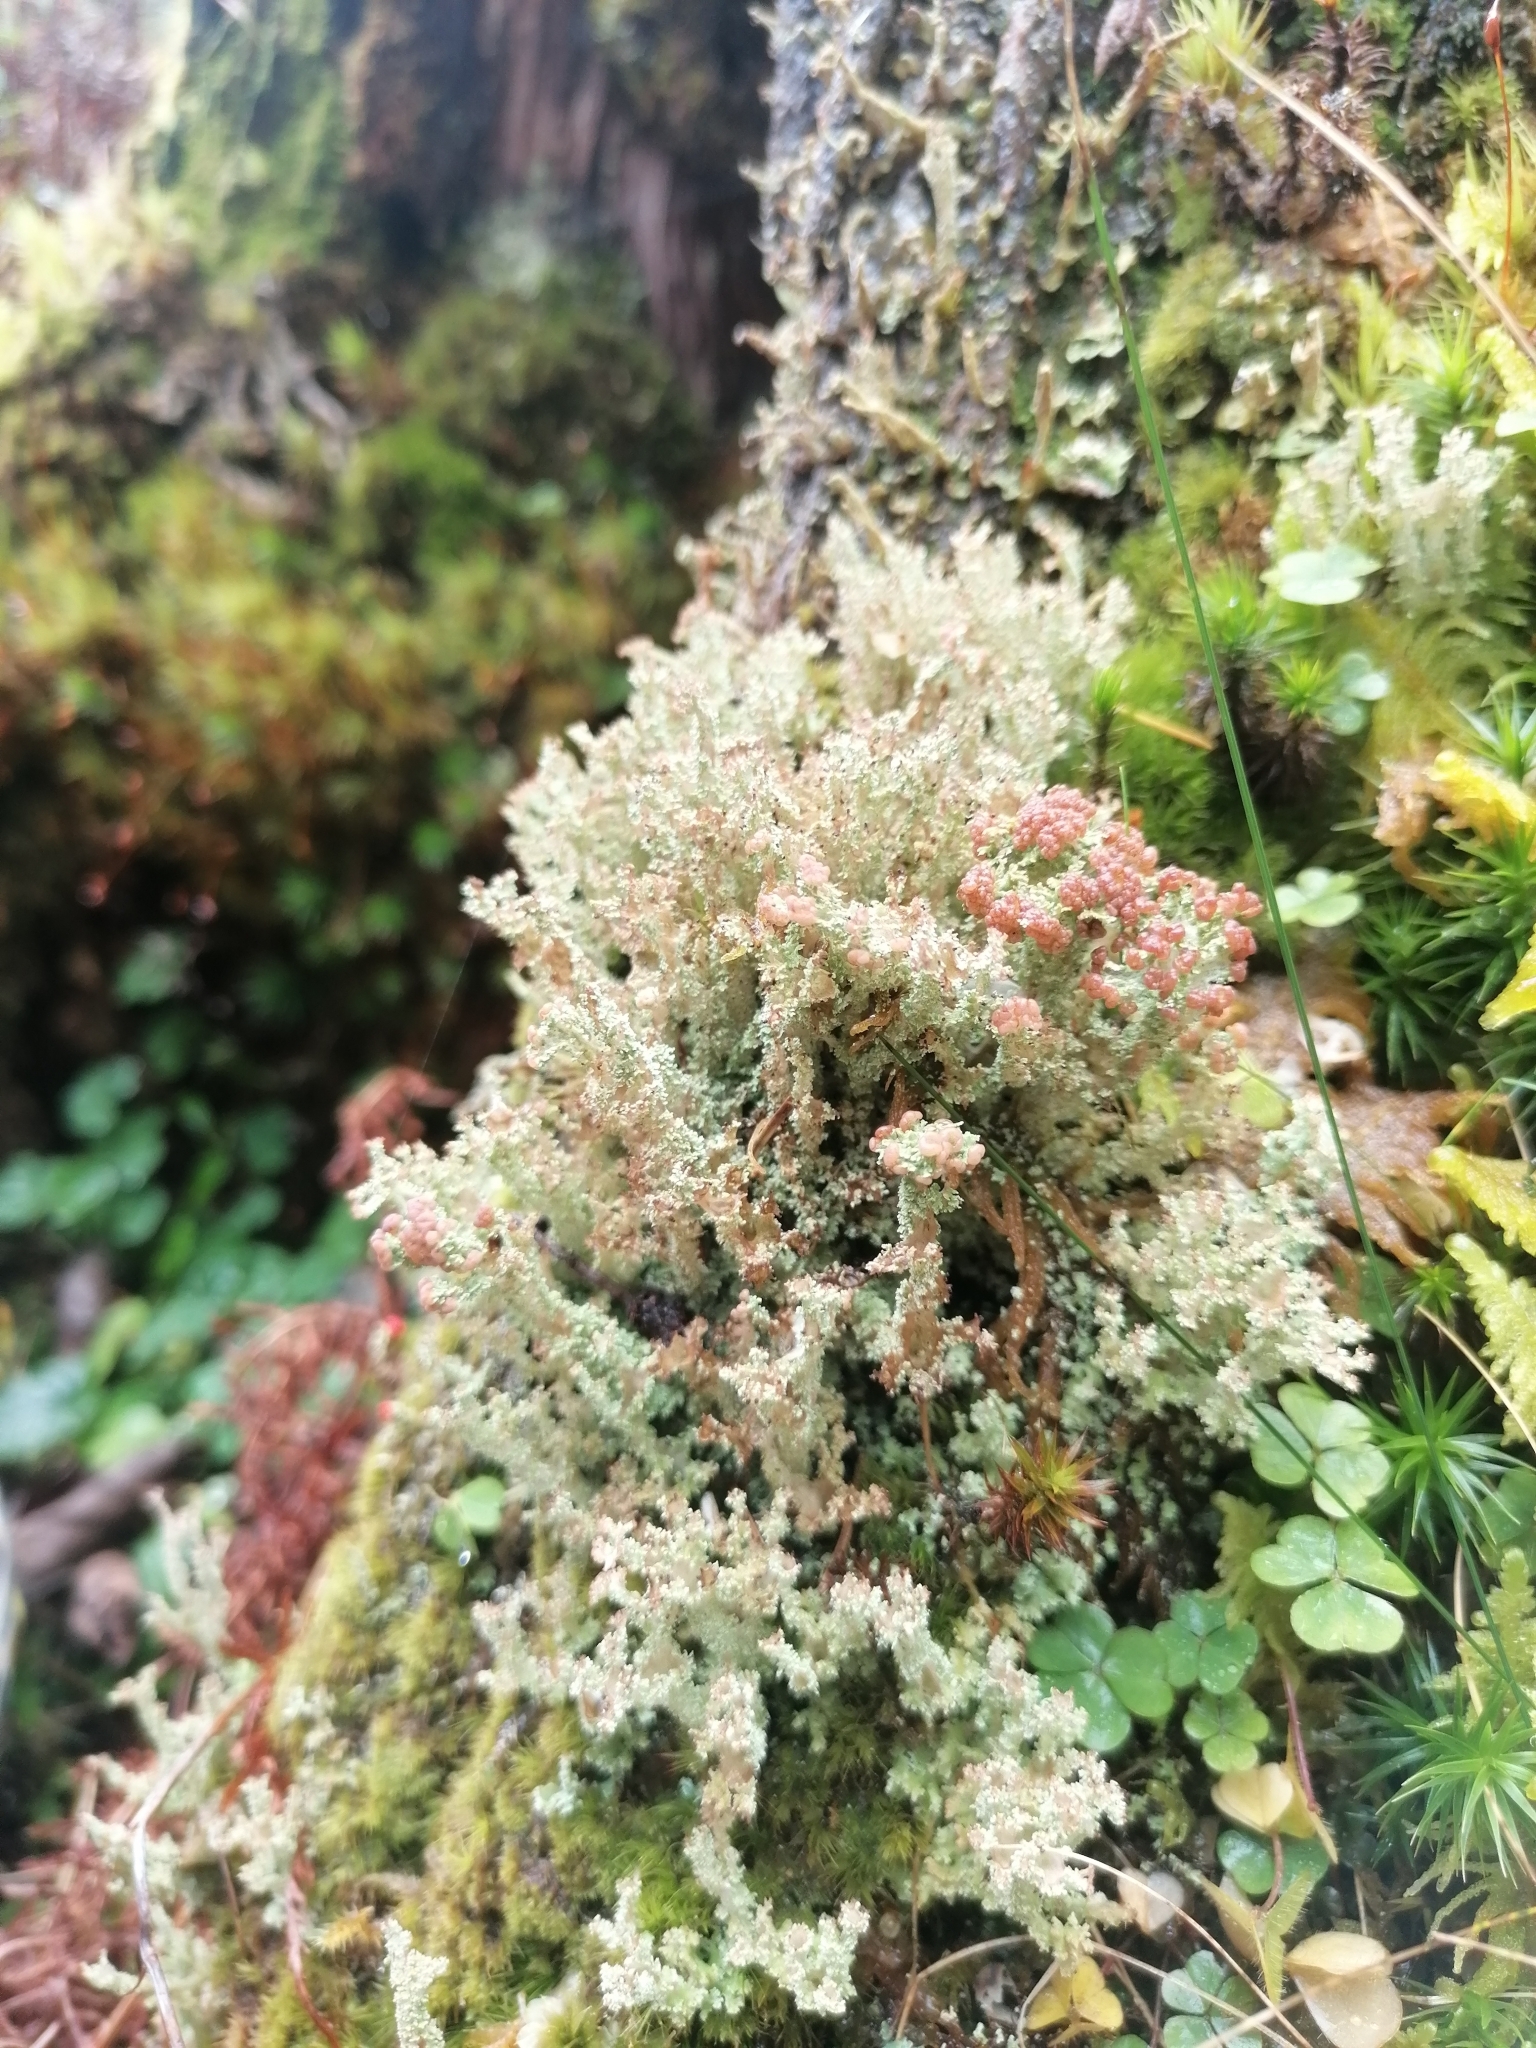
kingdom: Fungi
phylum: Ascomycota
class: Lecanoromycetes
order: Lecanorales
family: Cladoniaceae
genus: Cladonia
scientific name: Cladonia squamosa
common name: Dragon horn
